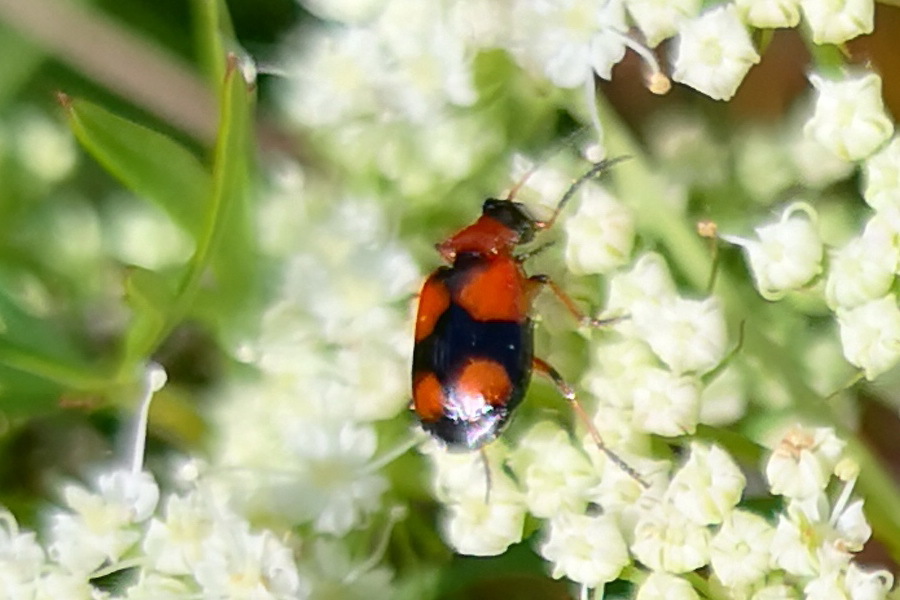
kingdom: Animalia
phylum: Arthropoda
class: Insecta
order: Coleoptera
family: Carabidae
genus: Lebia
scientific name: Lebia cruxminor
